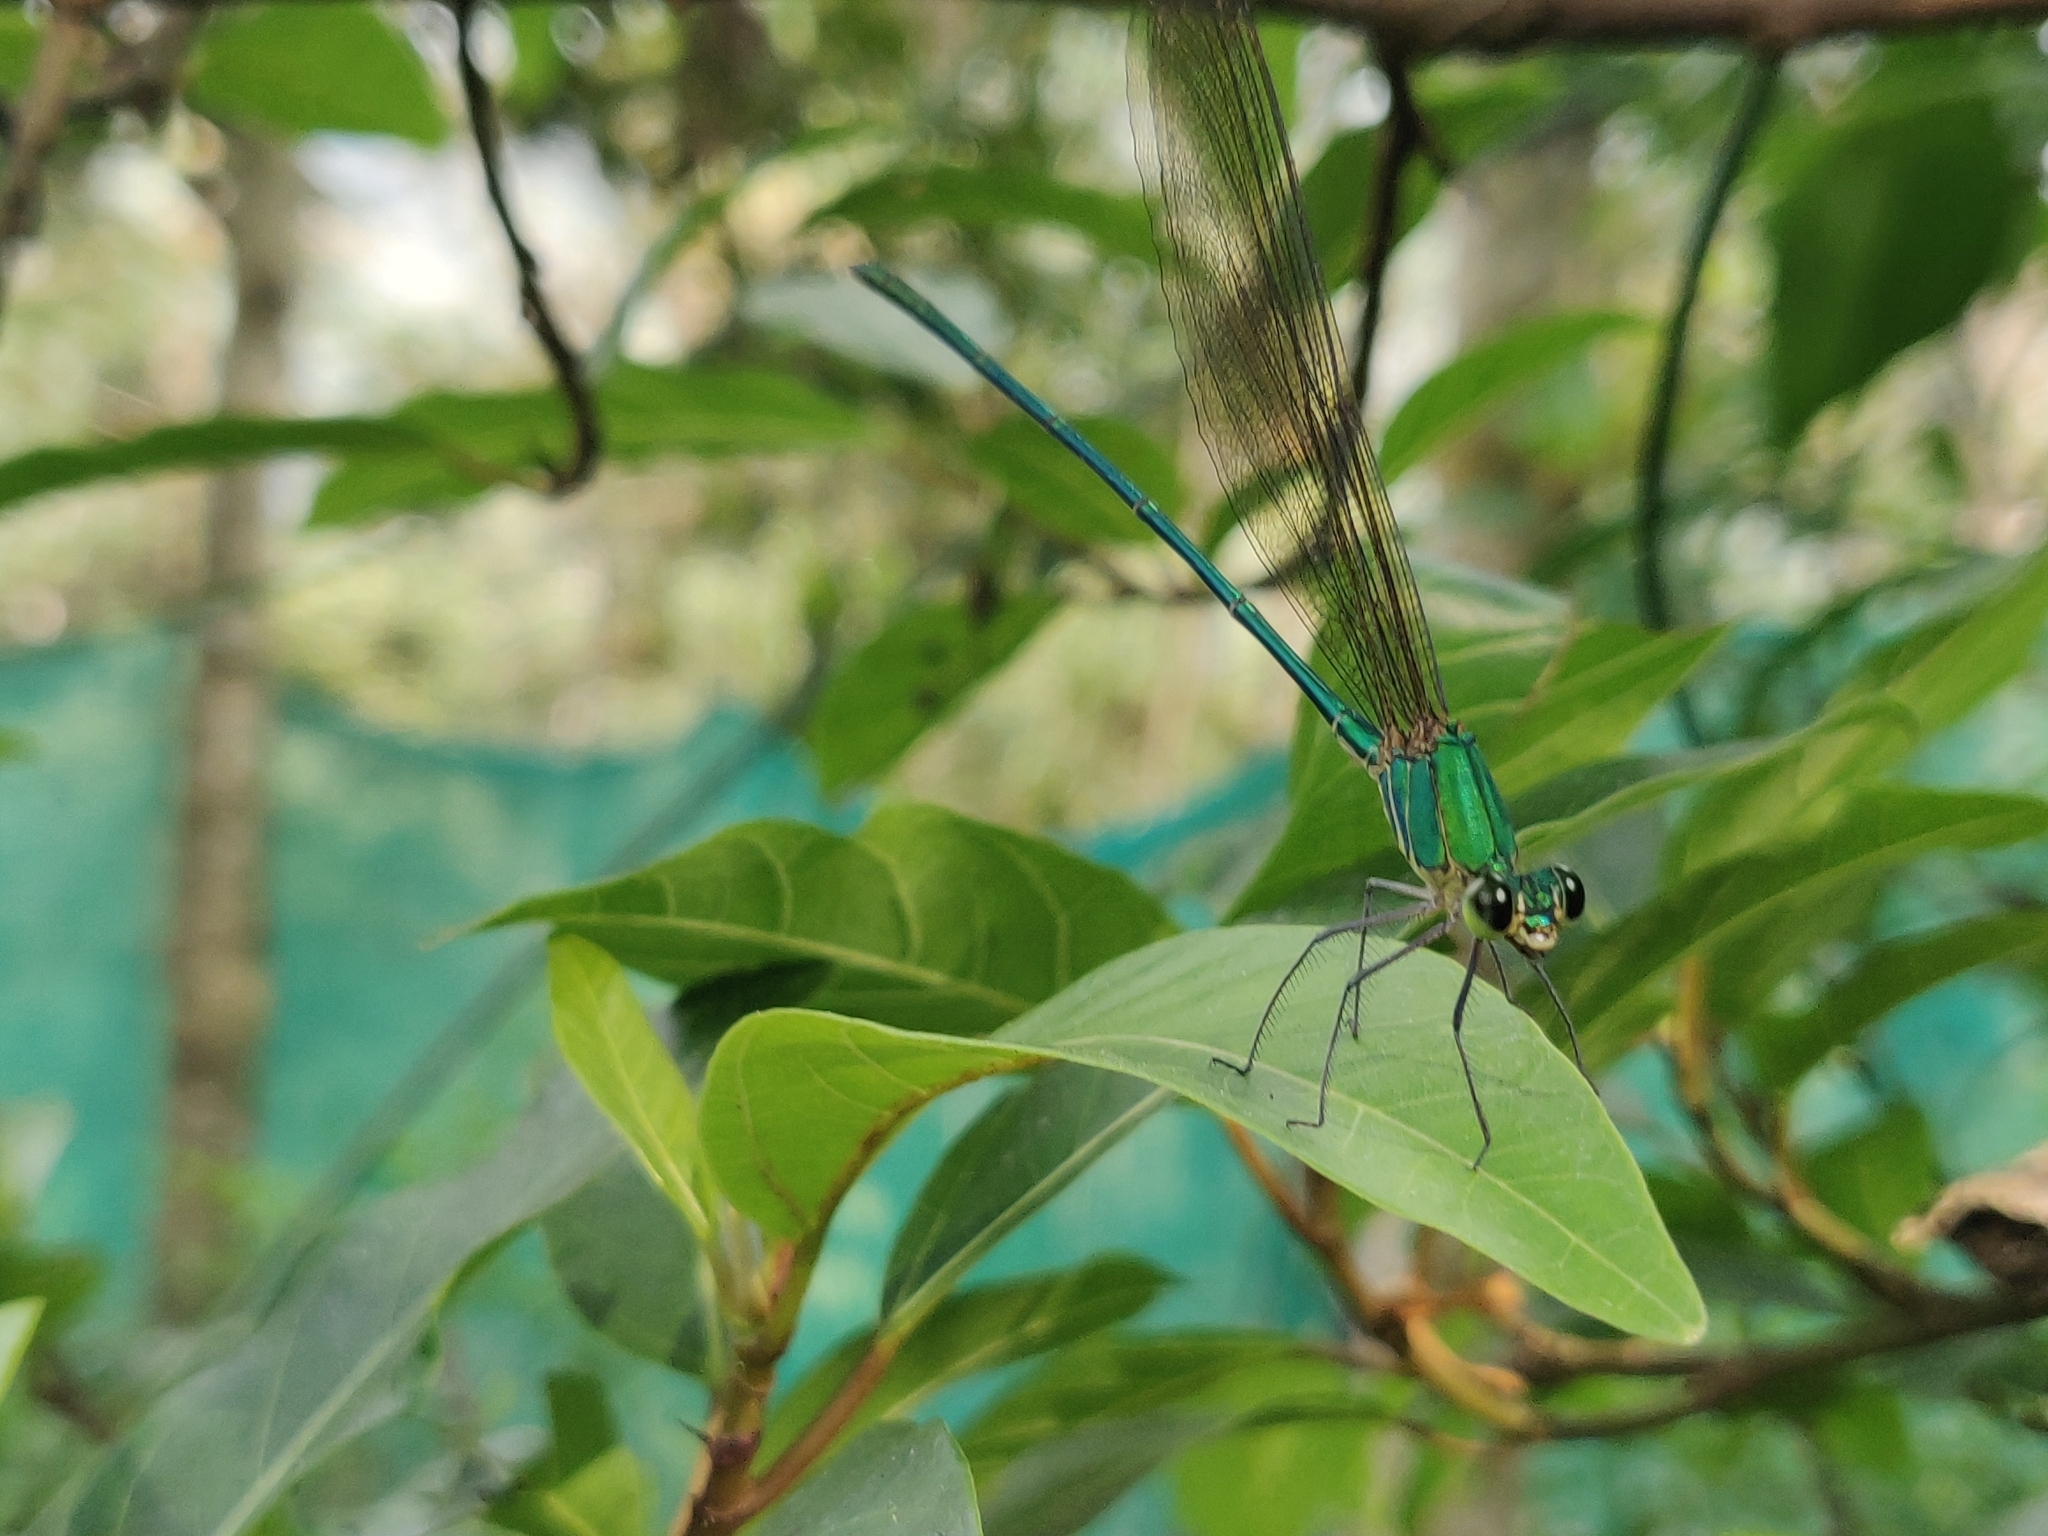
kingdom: Animalia
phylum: Arthropoda
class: Insecta
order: Odonata
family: Calopterygidae
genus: Vestalis
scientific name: Vestalis gracilis
